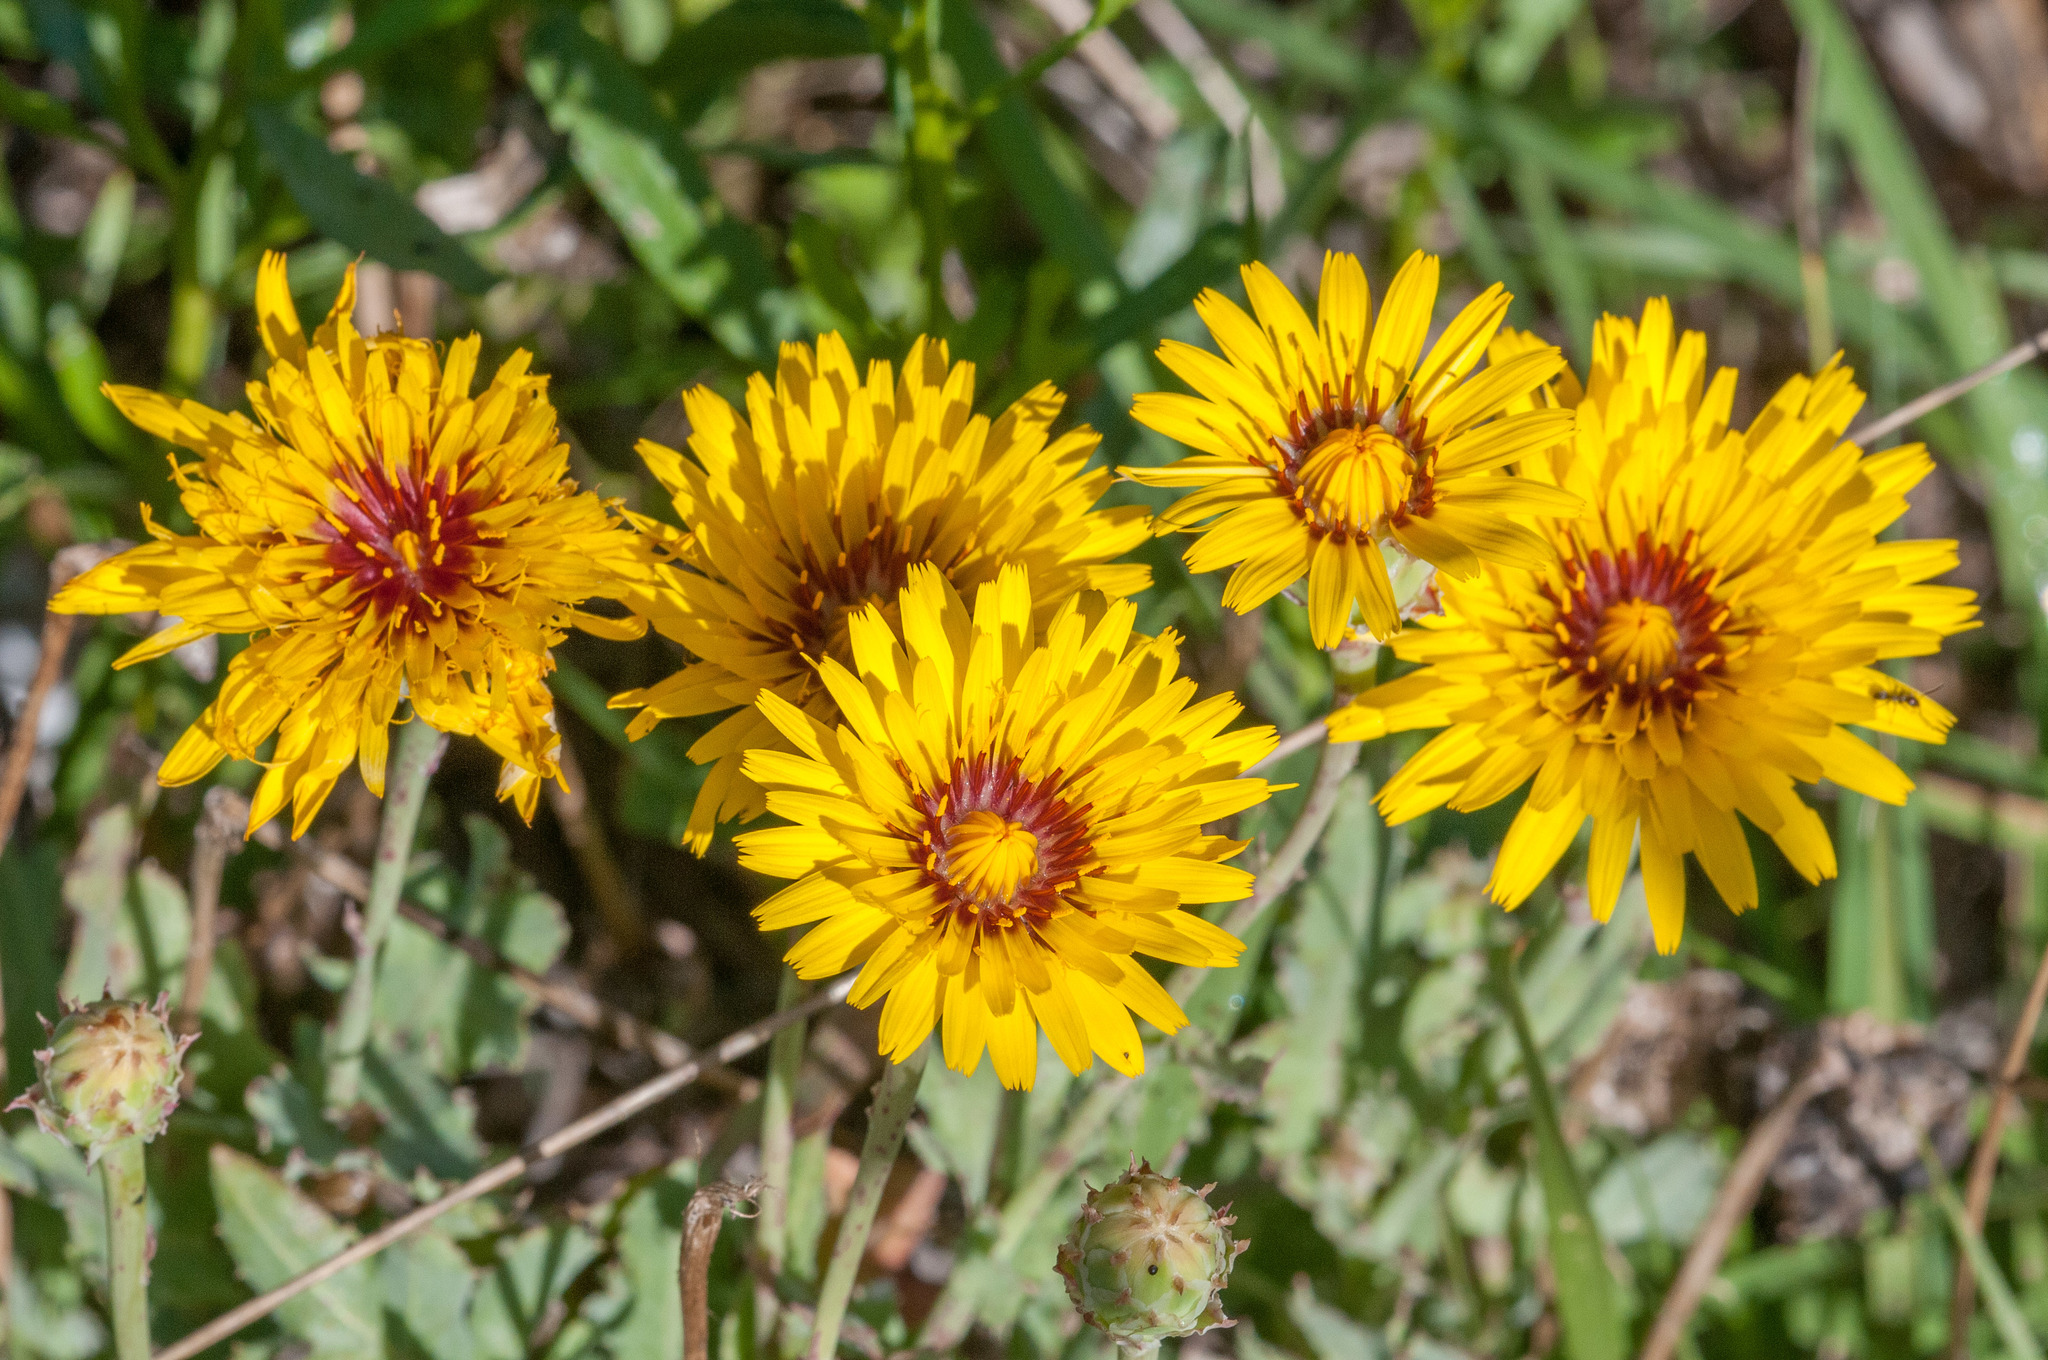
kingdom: Plantae
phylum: Tracheophyta
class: Magnoliopsida
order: Asterales
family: Asteraceae
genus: Reichardia
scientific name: Reichardia tingitana
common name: Reichardia
